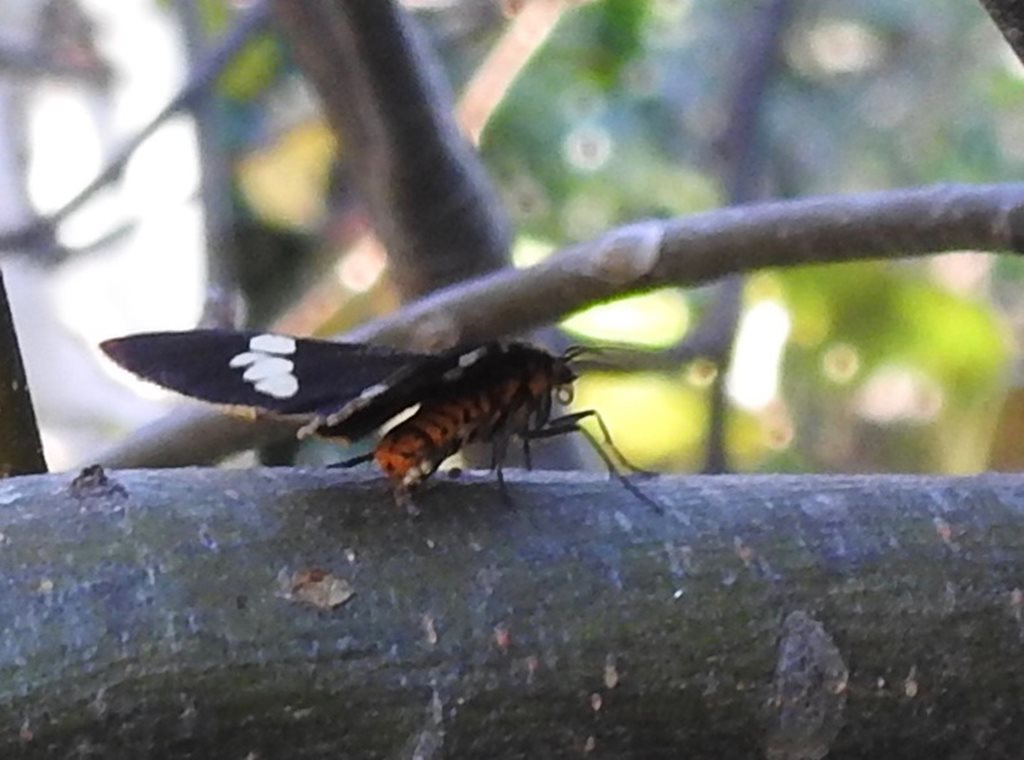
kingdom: Animalia
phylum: Arthropoda
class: Insecta
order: Lepidoptera
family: Erebidae
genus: Nyctemera
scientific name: Nyctemera amicus
